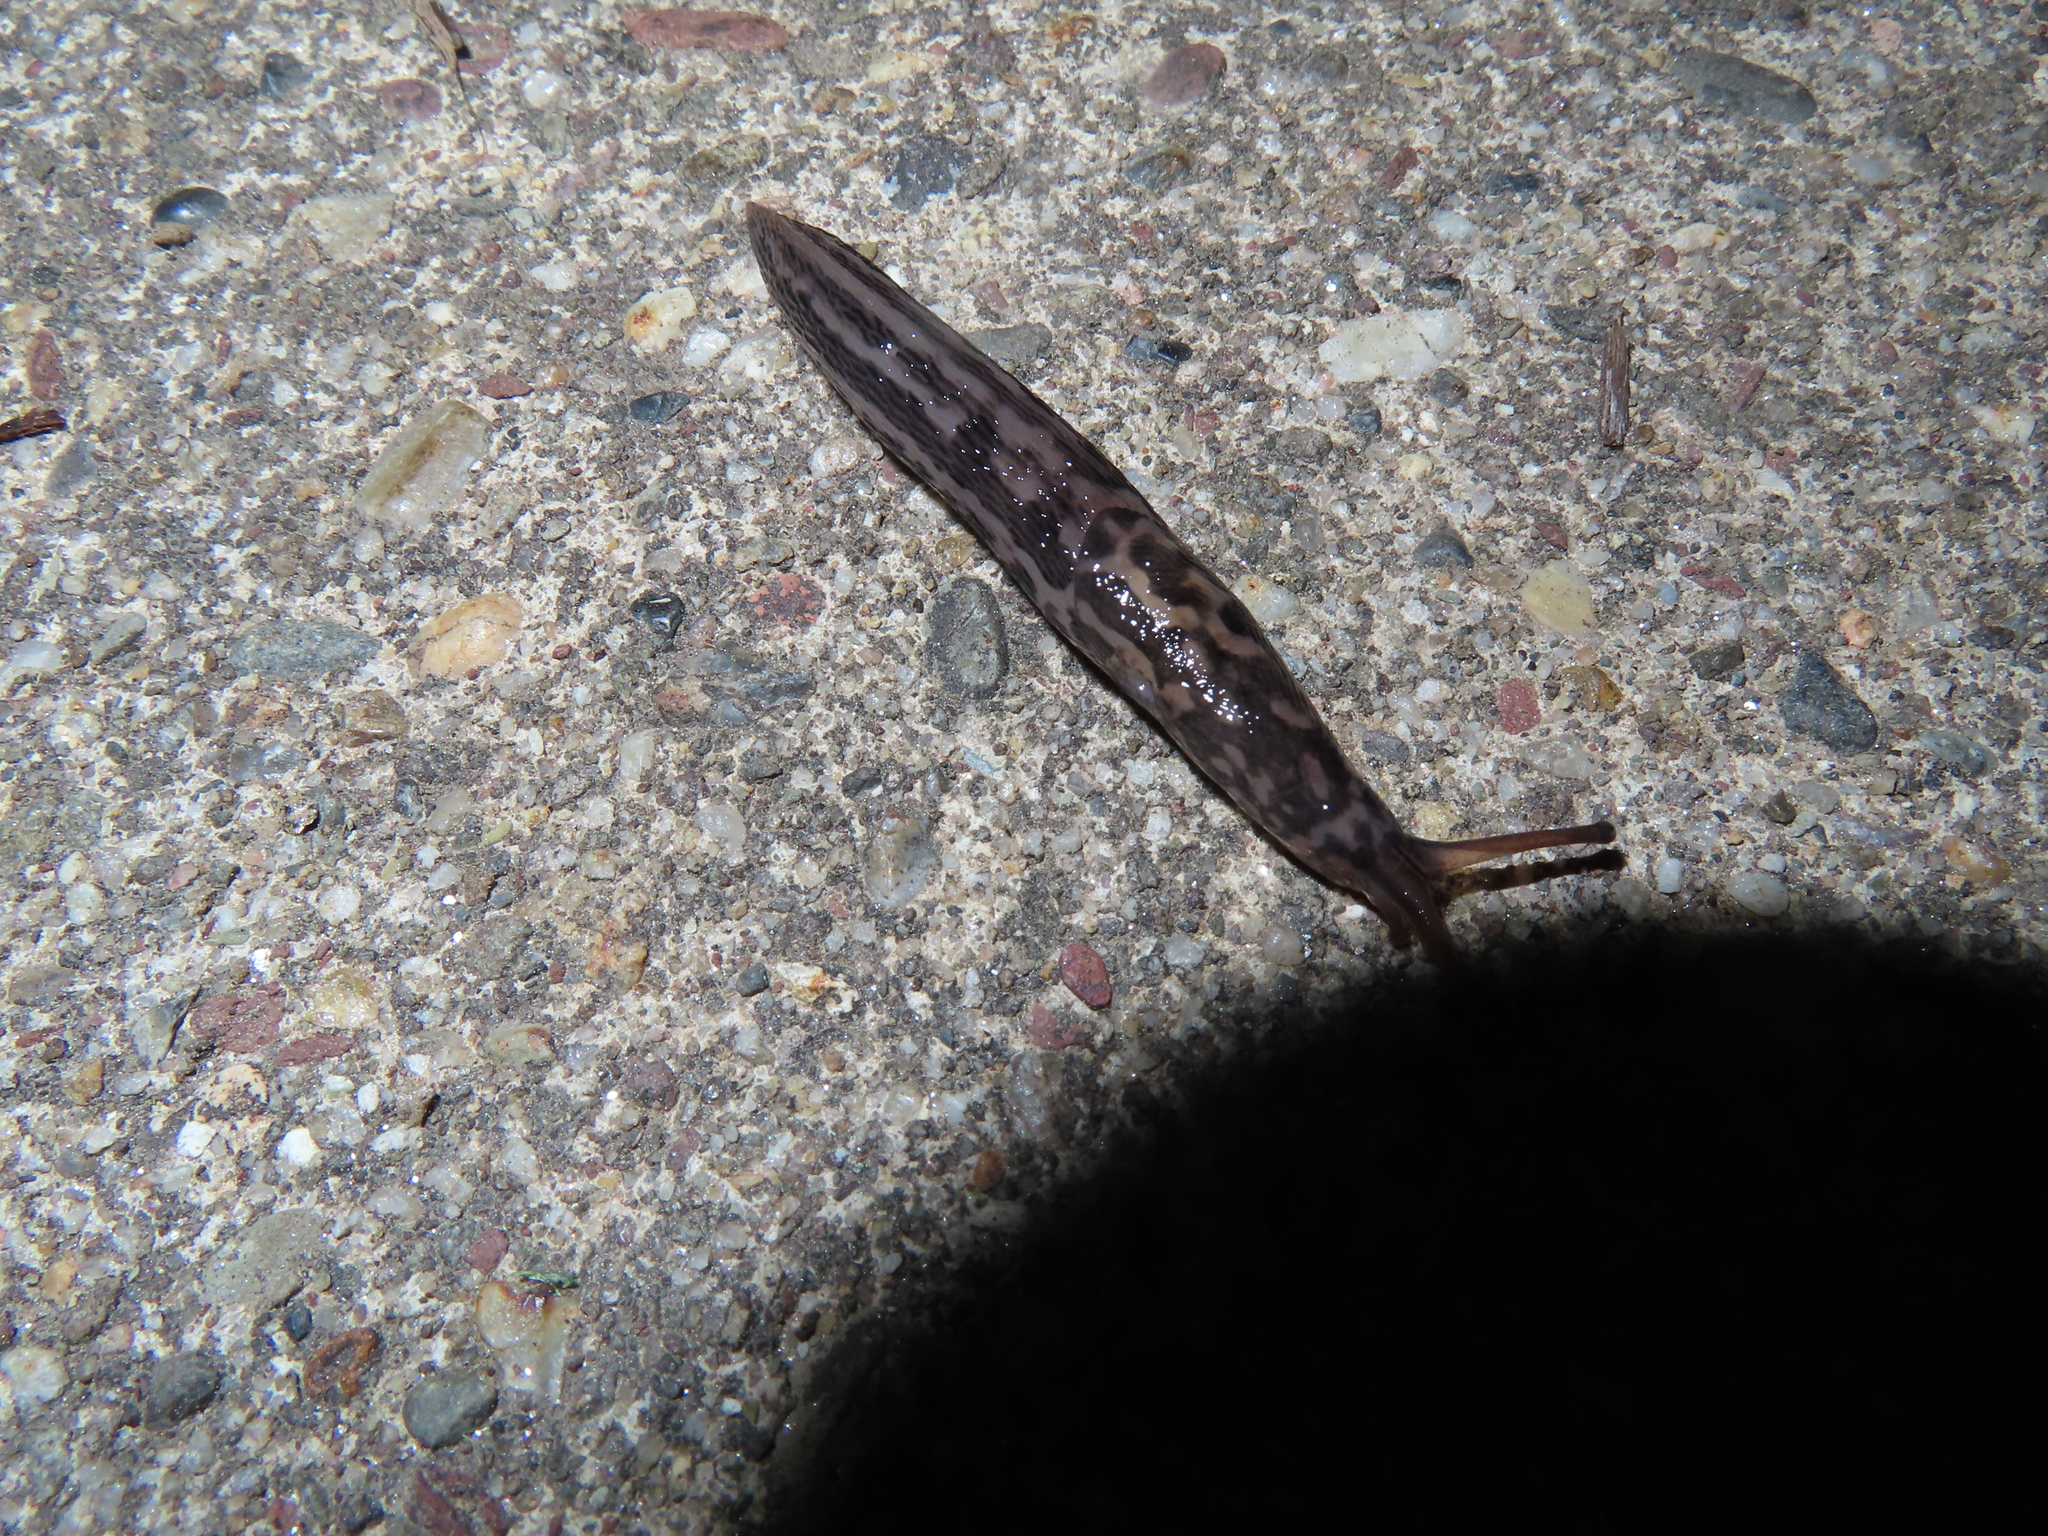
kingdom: Animalia
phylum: Mollusca
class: Gastropoda
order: Stylommatophora
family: Limacidae
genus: Limax
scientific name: Limax maximus
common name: Great grey slug
